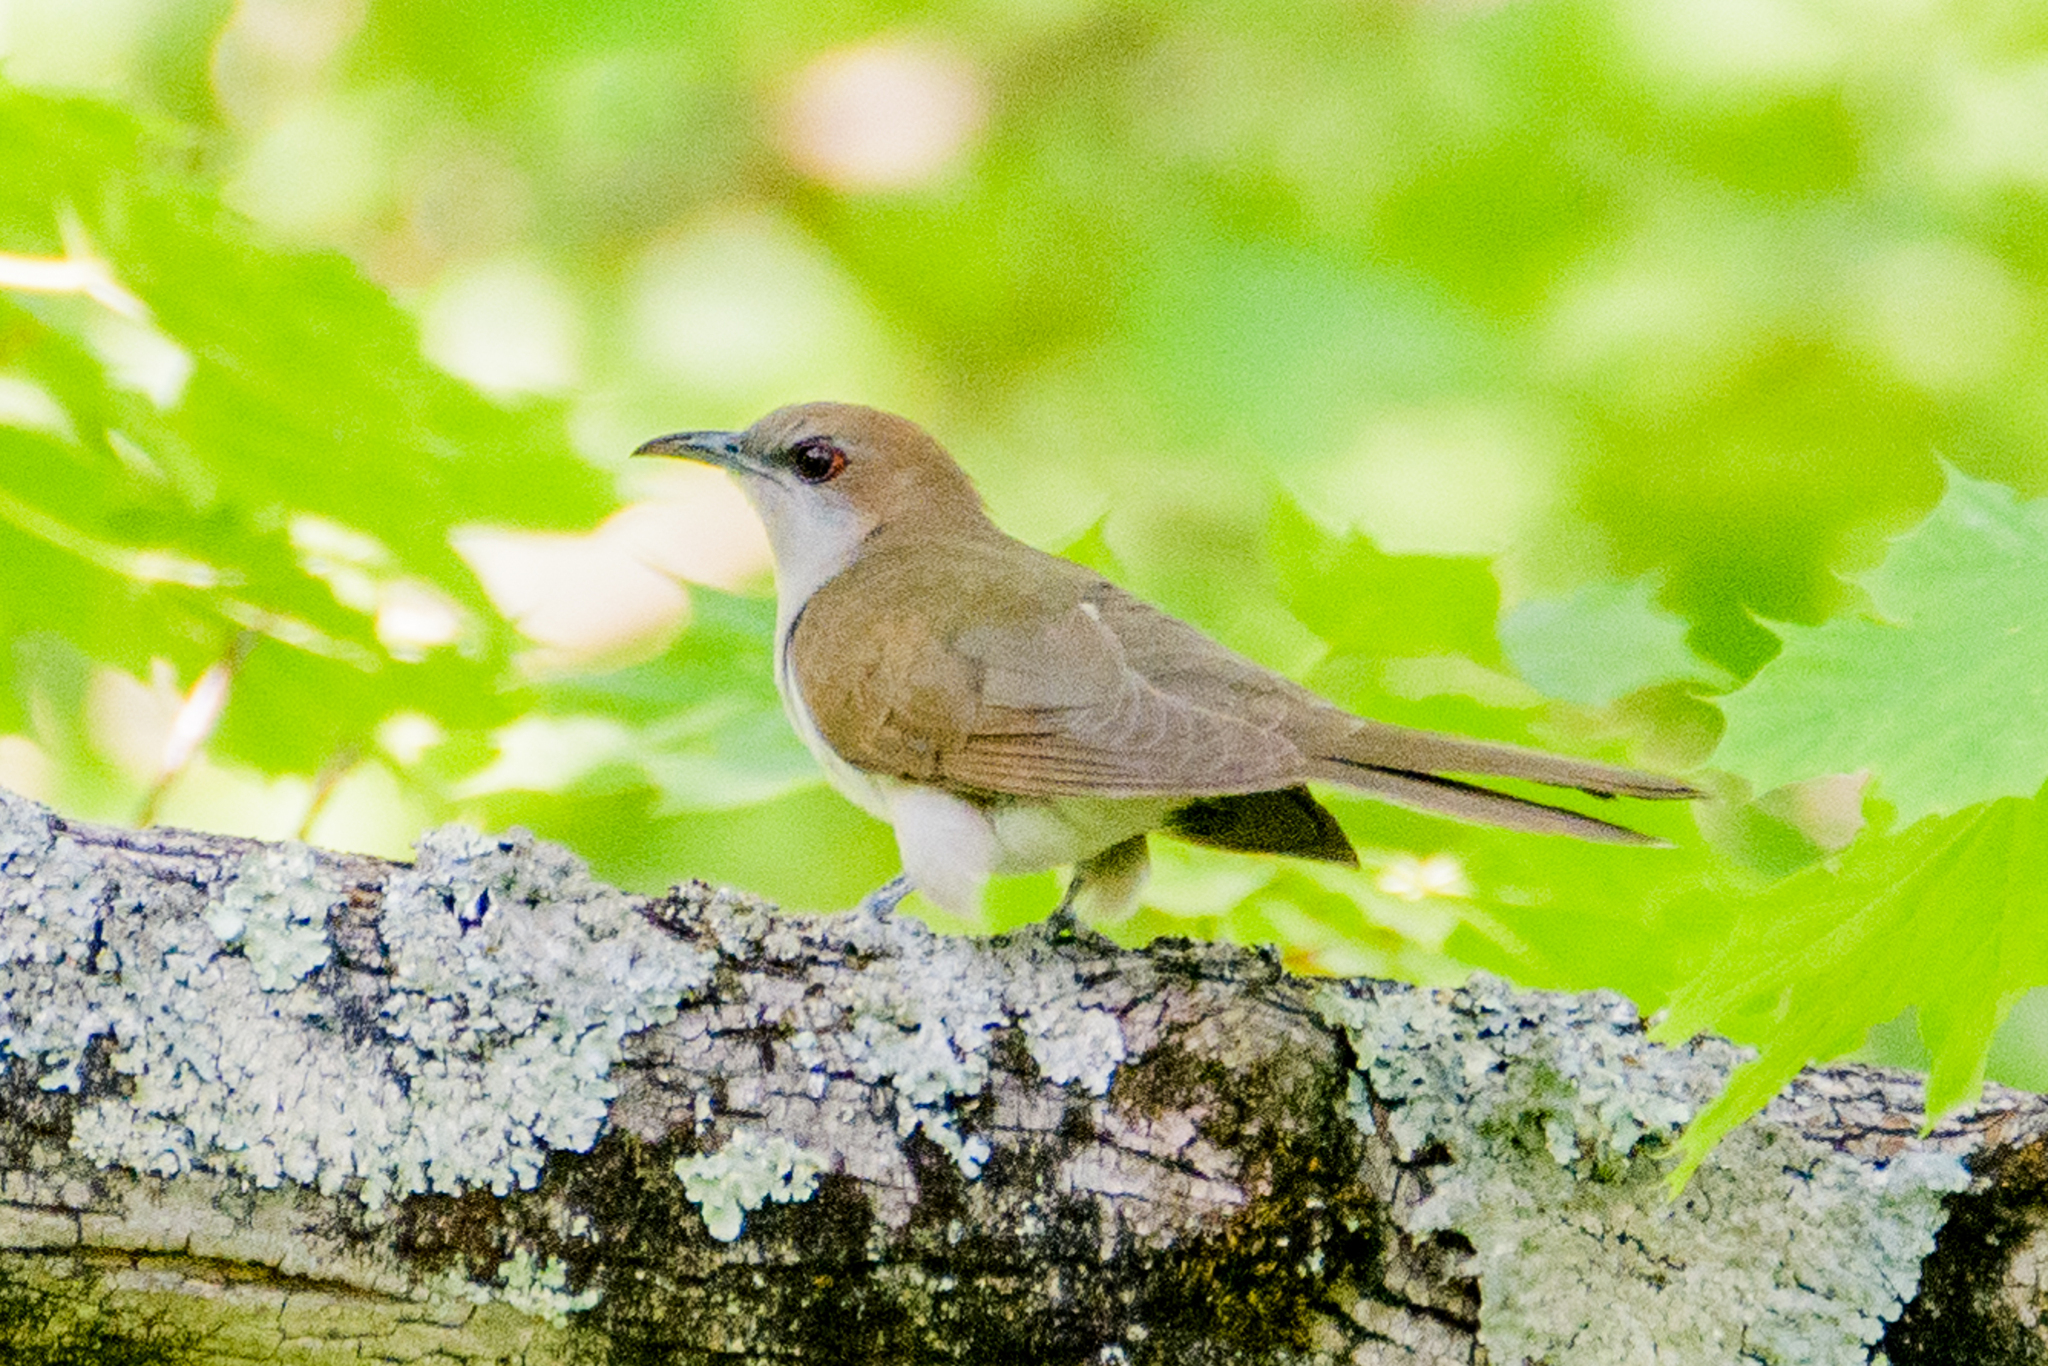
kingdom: Animalia
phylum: Chordata
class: Aves
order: Cuculiformes
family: Cuculidae
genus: Coccyzus
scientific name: Coccyzus erythropthalmus
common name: Black-billed cuckoo
